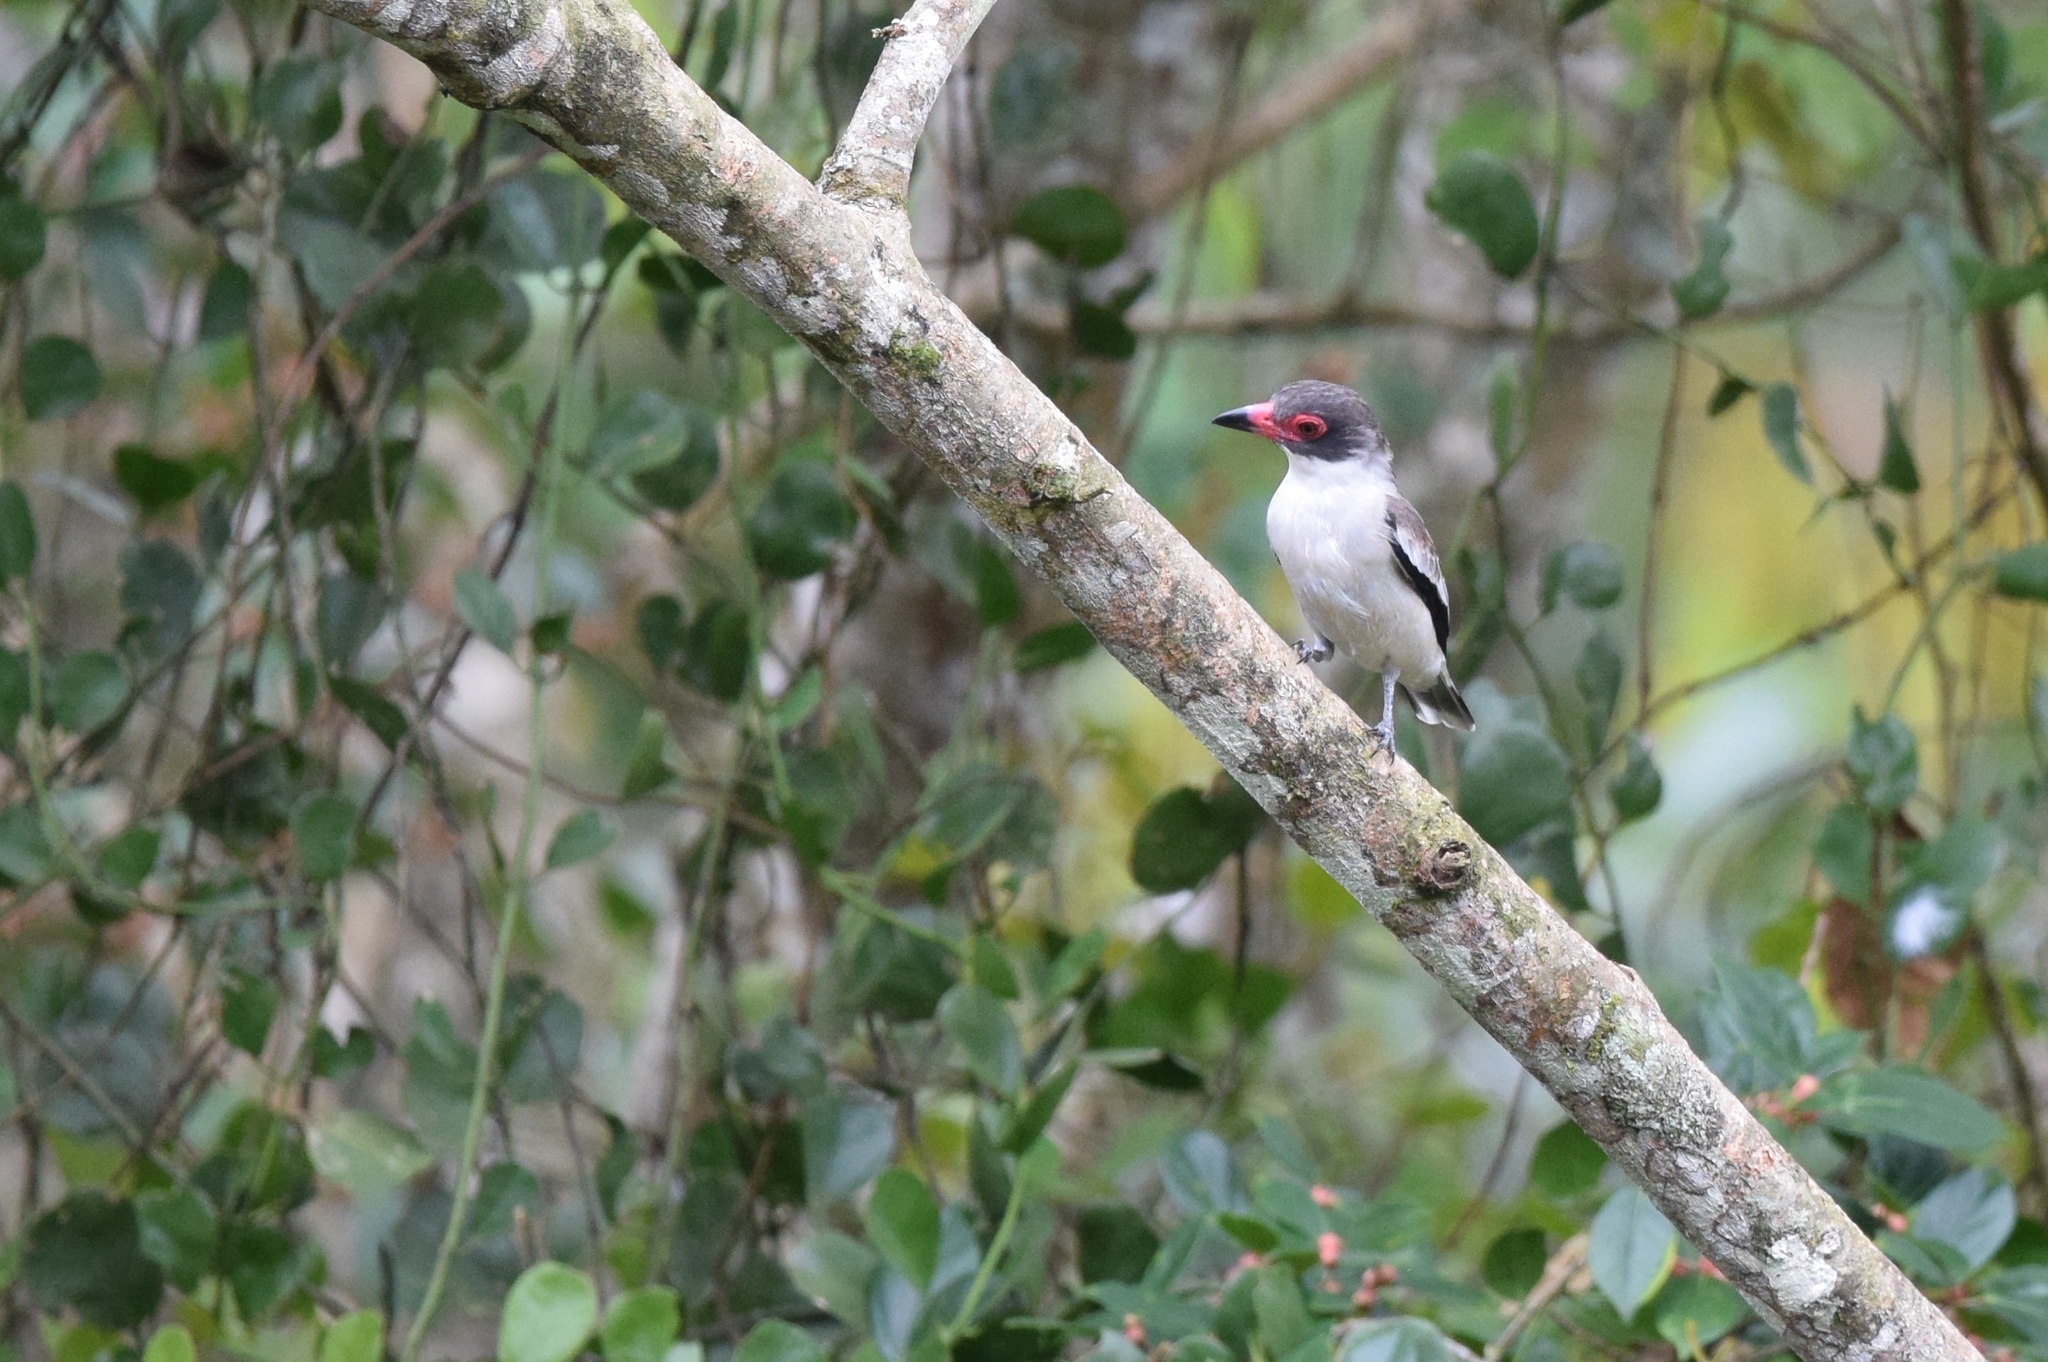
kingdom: Animalia
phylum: Chordata
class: Aves
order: Passeriformes
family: Cotingidae
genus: Tityra
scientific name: Tityra semifasciata
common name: Masked tityra
